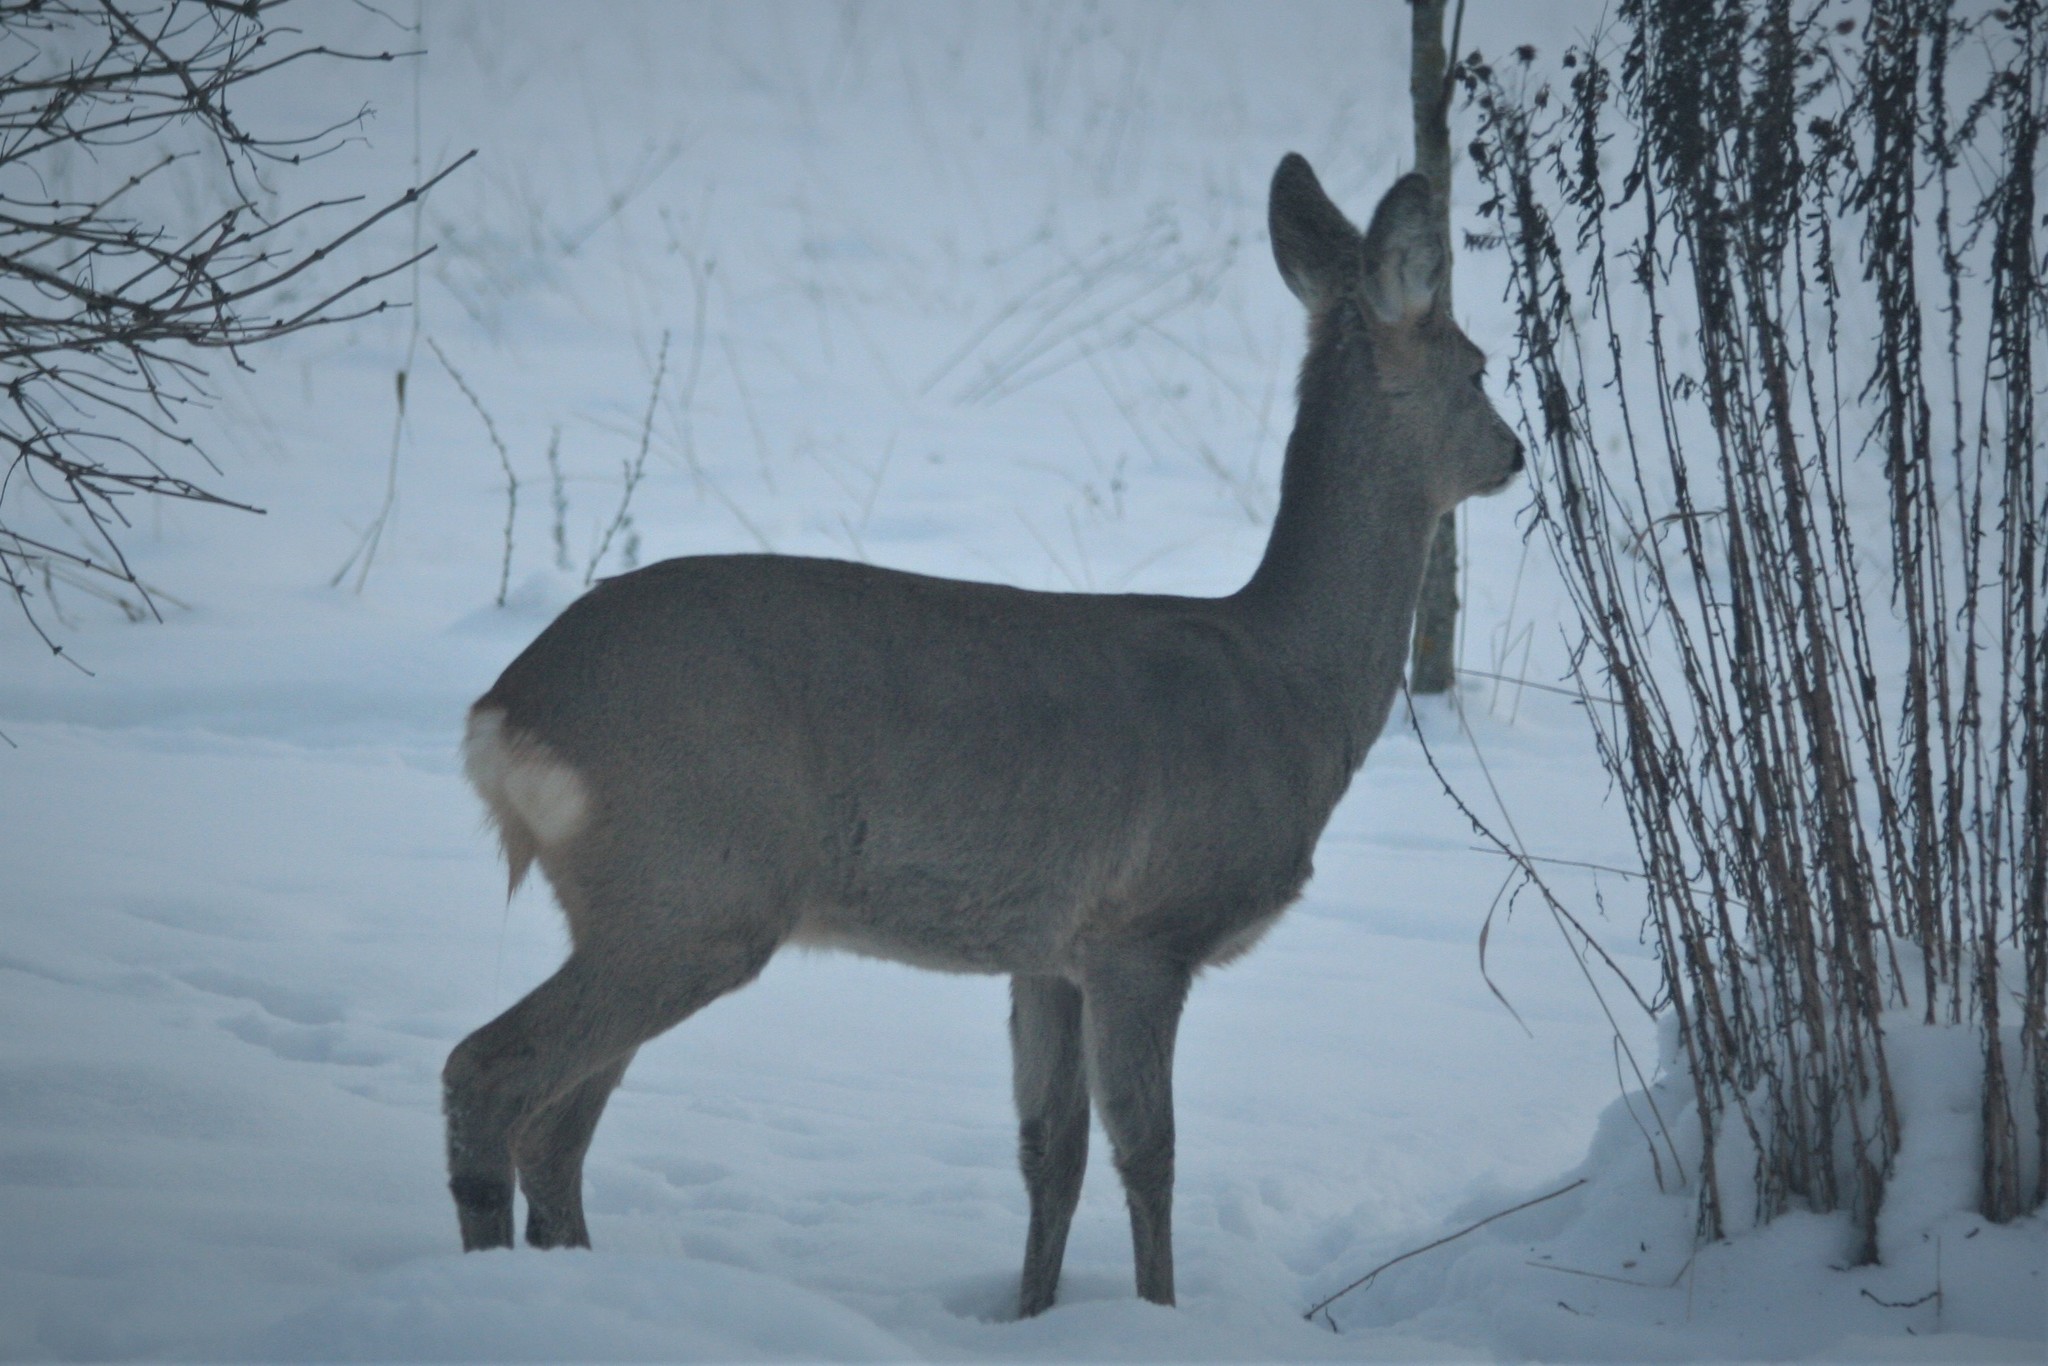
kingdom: Animalia
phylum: Chordata
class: Mammalia
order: Artiodactyla
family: Cervidae
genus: Capreolus
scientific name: Capreolus capreolus
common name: Western roe deer
